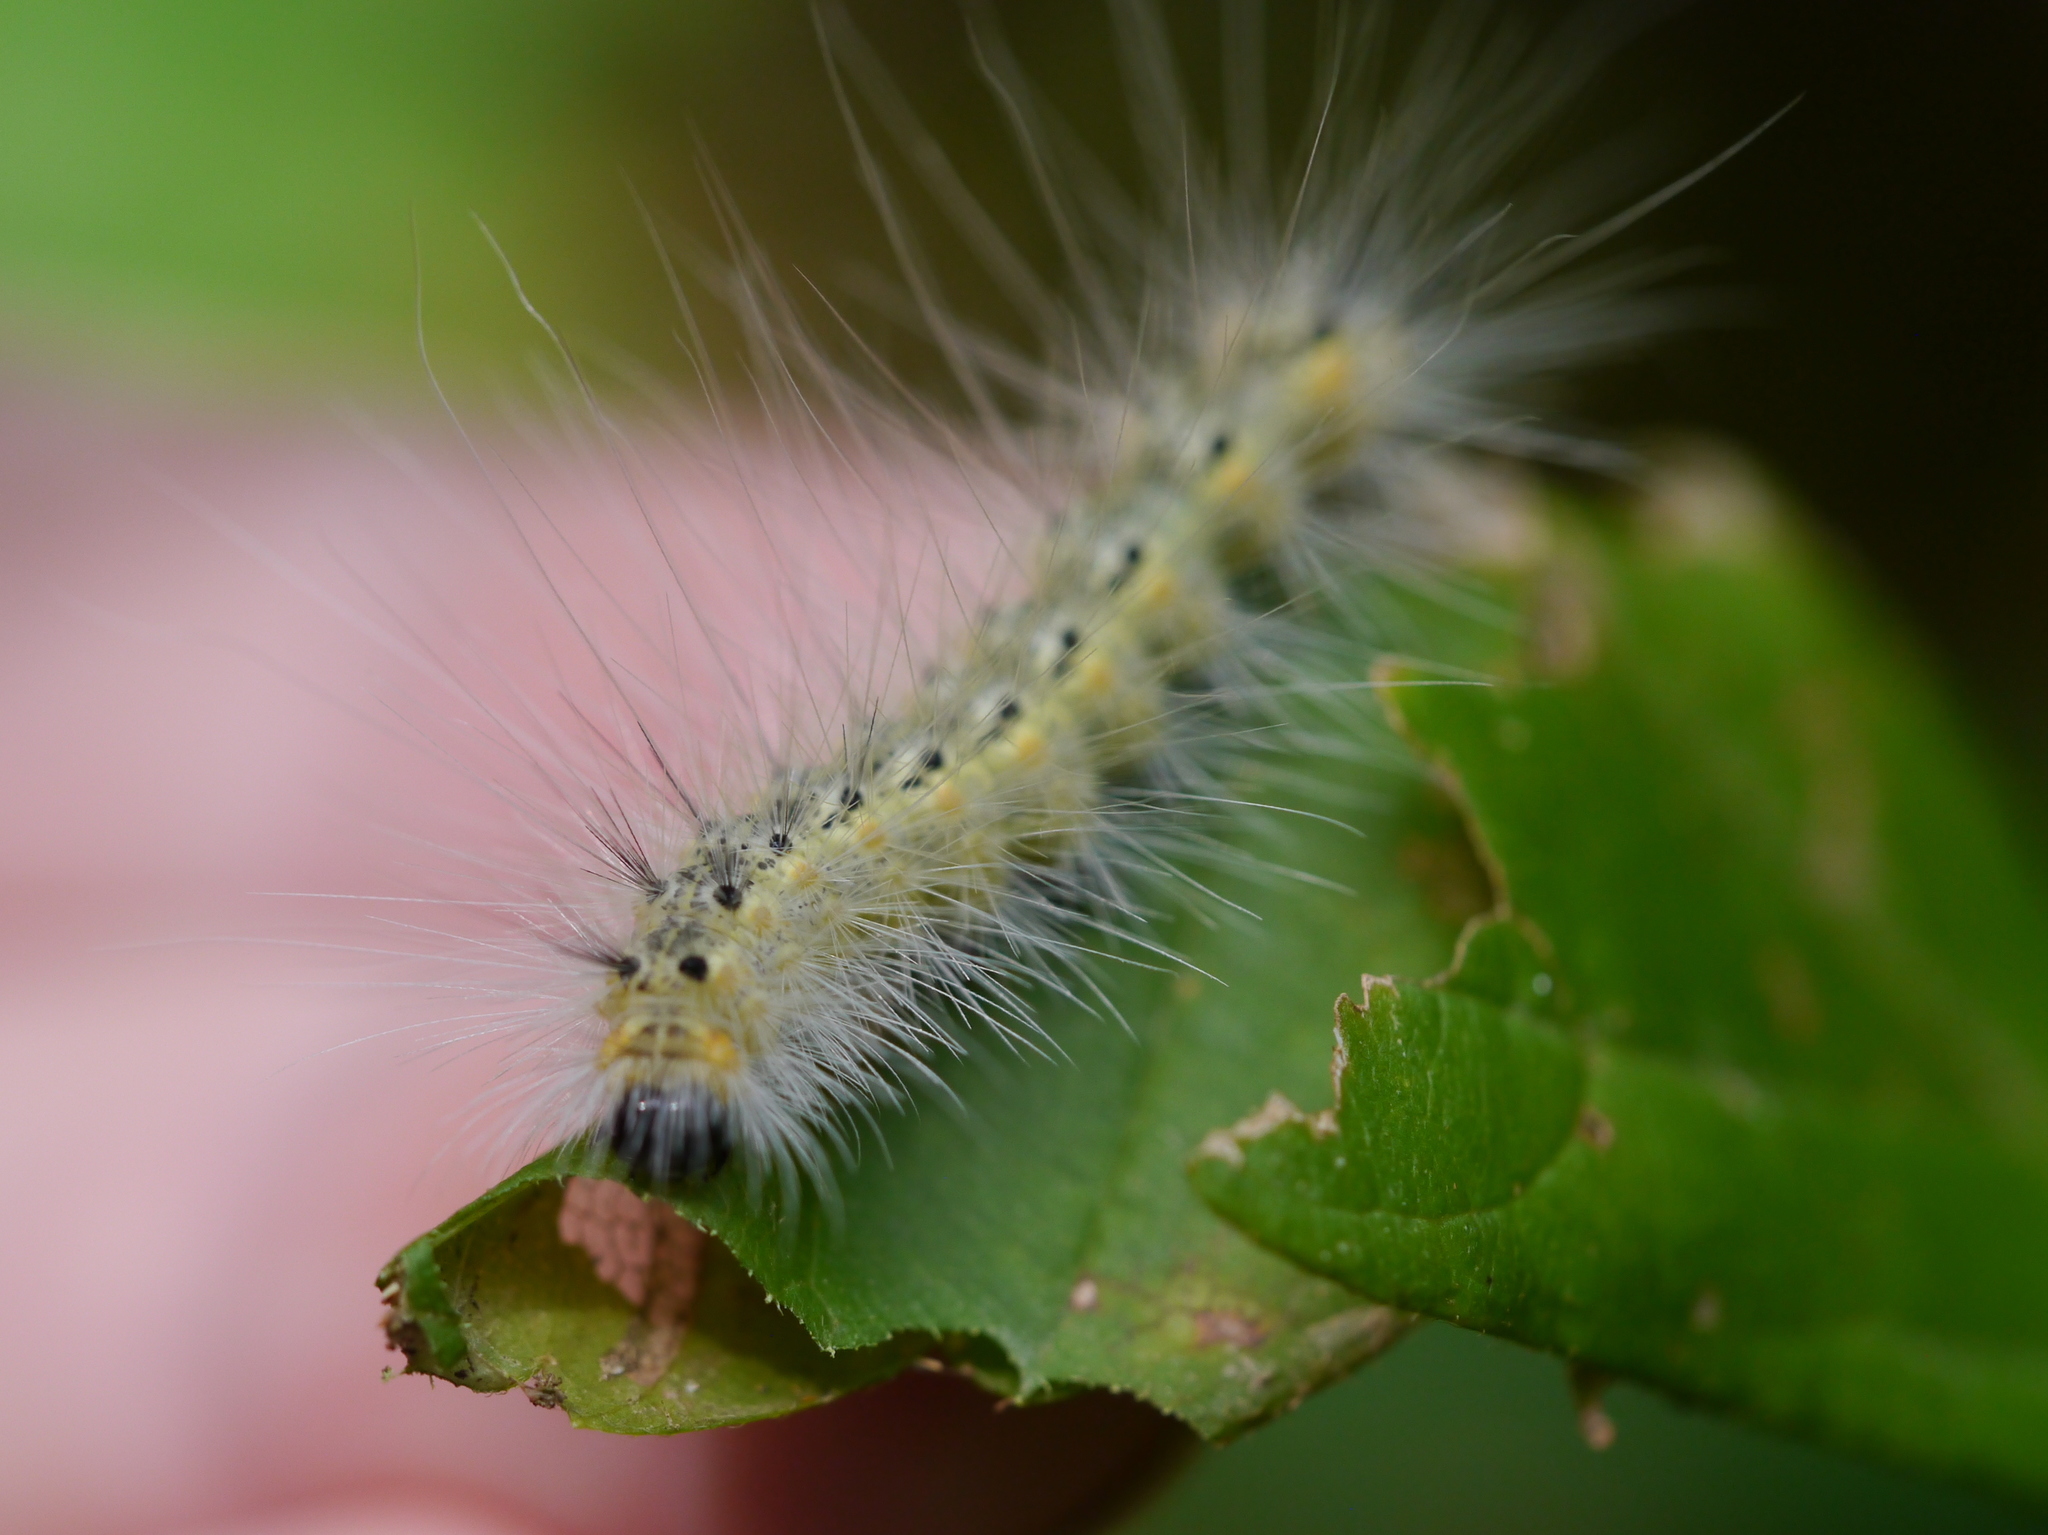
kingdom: Animalia
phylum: Arthropoda
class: Insecta
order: Lepidoptera
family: Erebidae
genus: Hyphantria
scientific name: Hyphantria cunea
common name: American white moth
